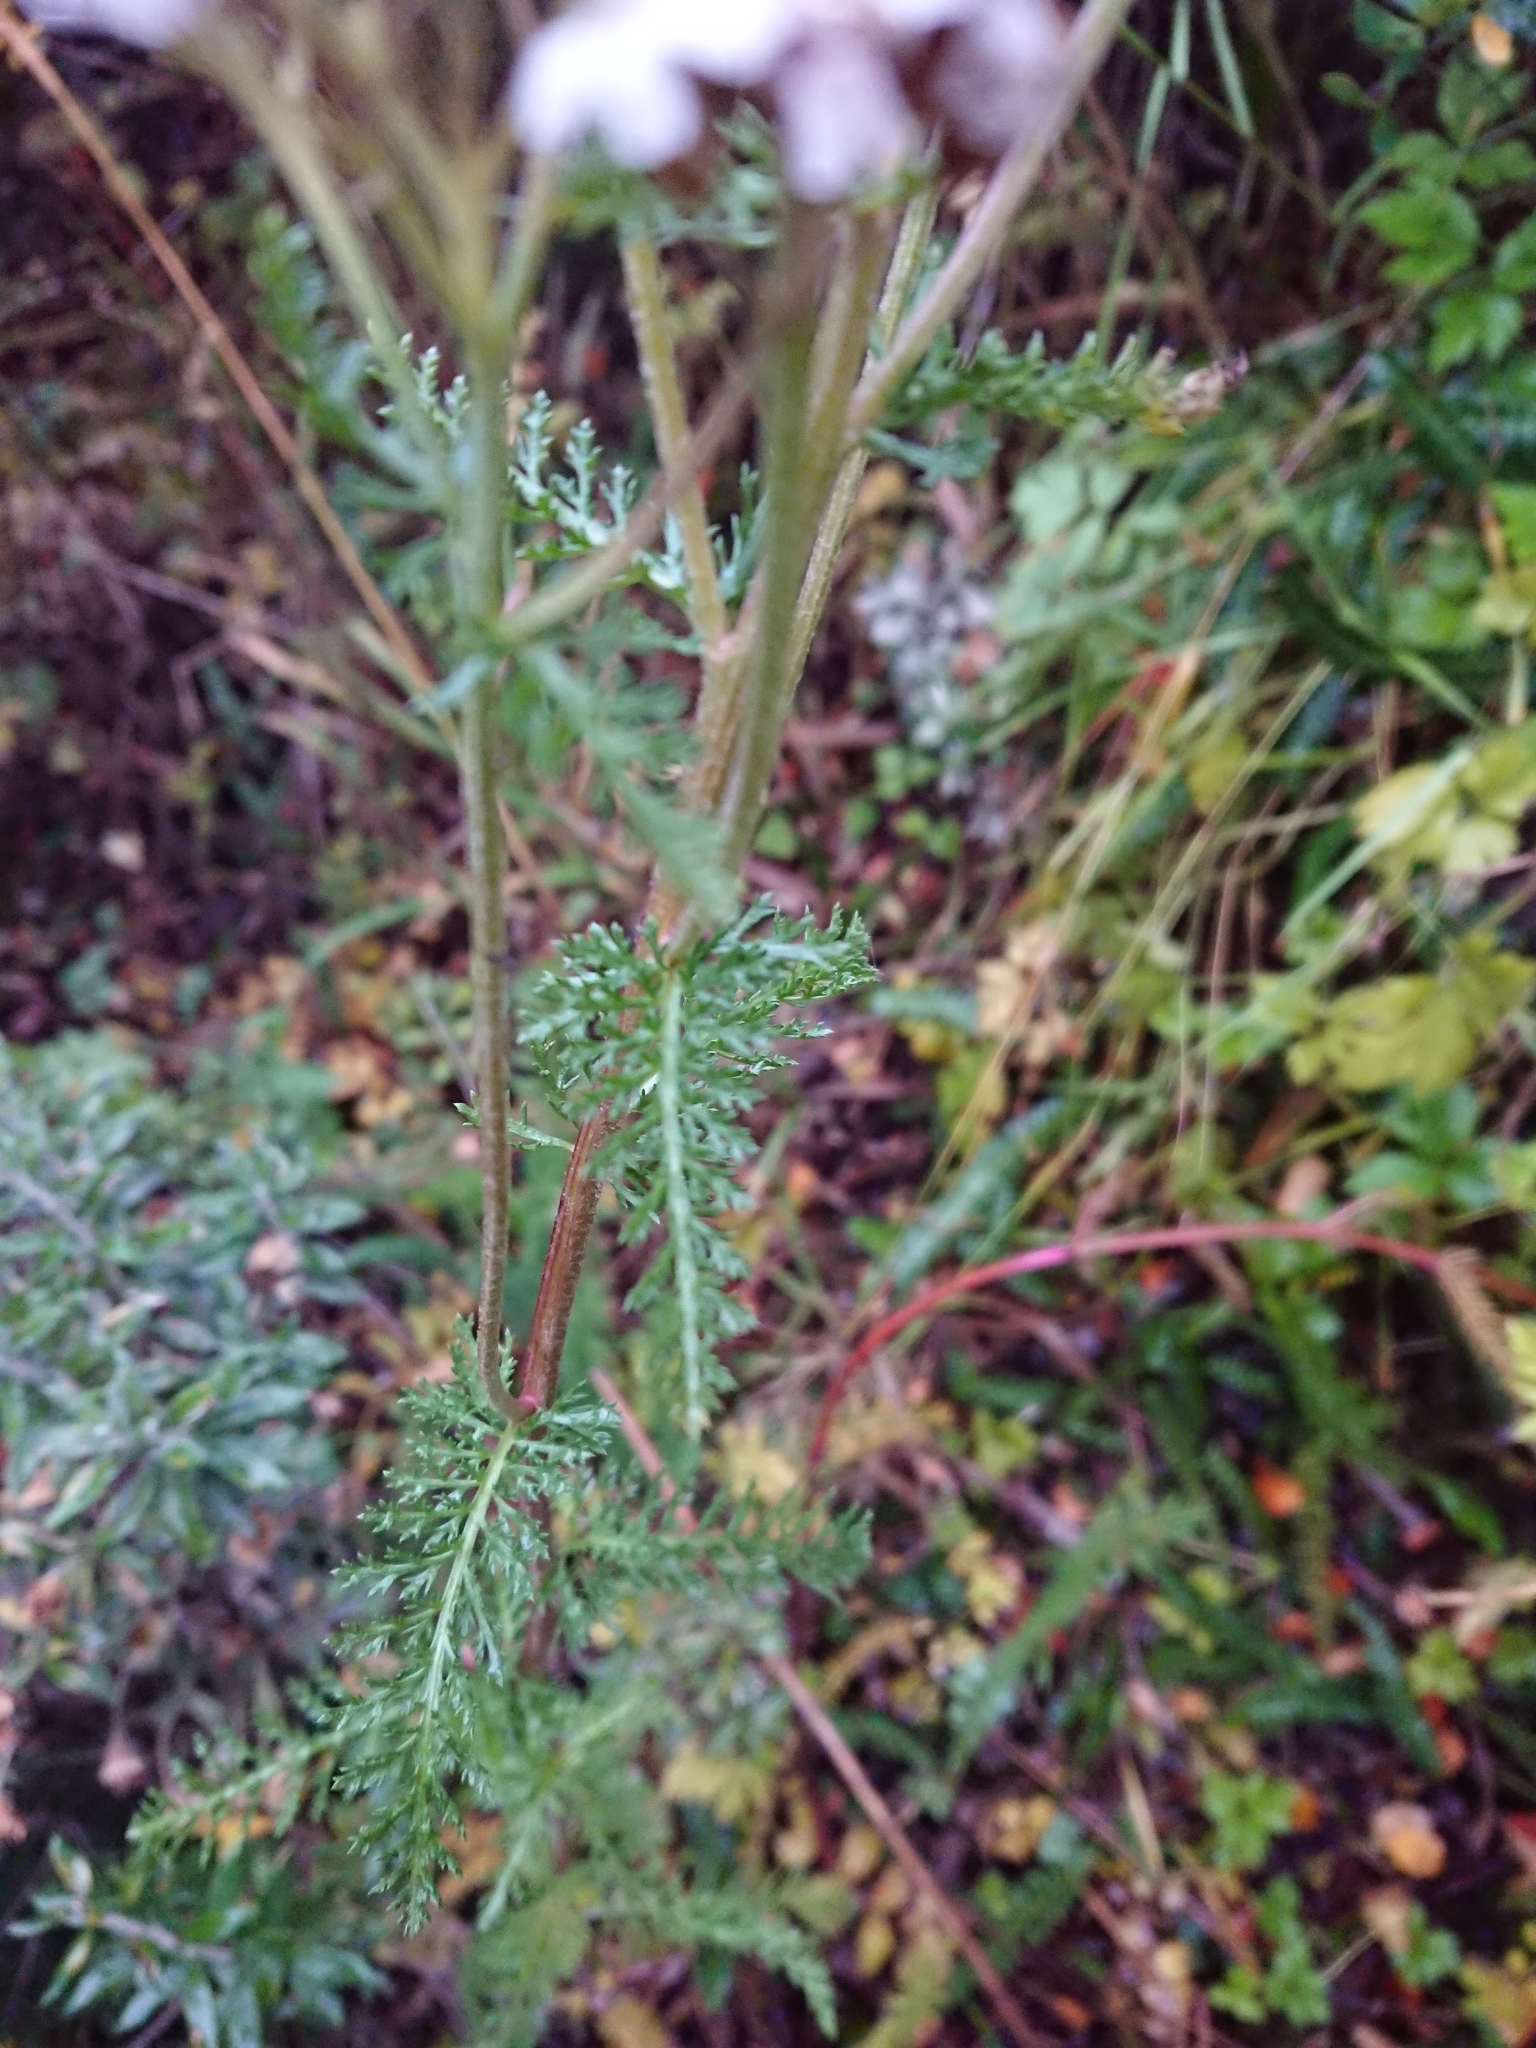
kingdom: Plantae
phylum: Tracheophyta
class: Magnoliopsida
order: Asterales
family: Asteraceae
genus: Achillea
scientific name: Achillea millefolium
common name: Yarrow
